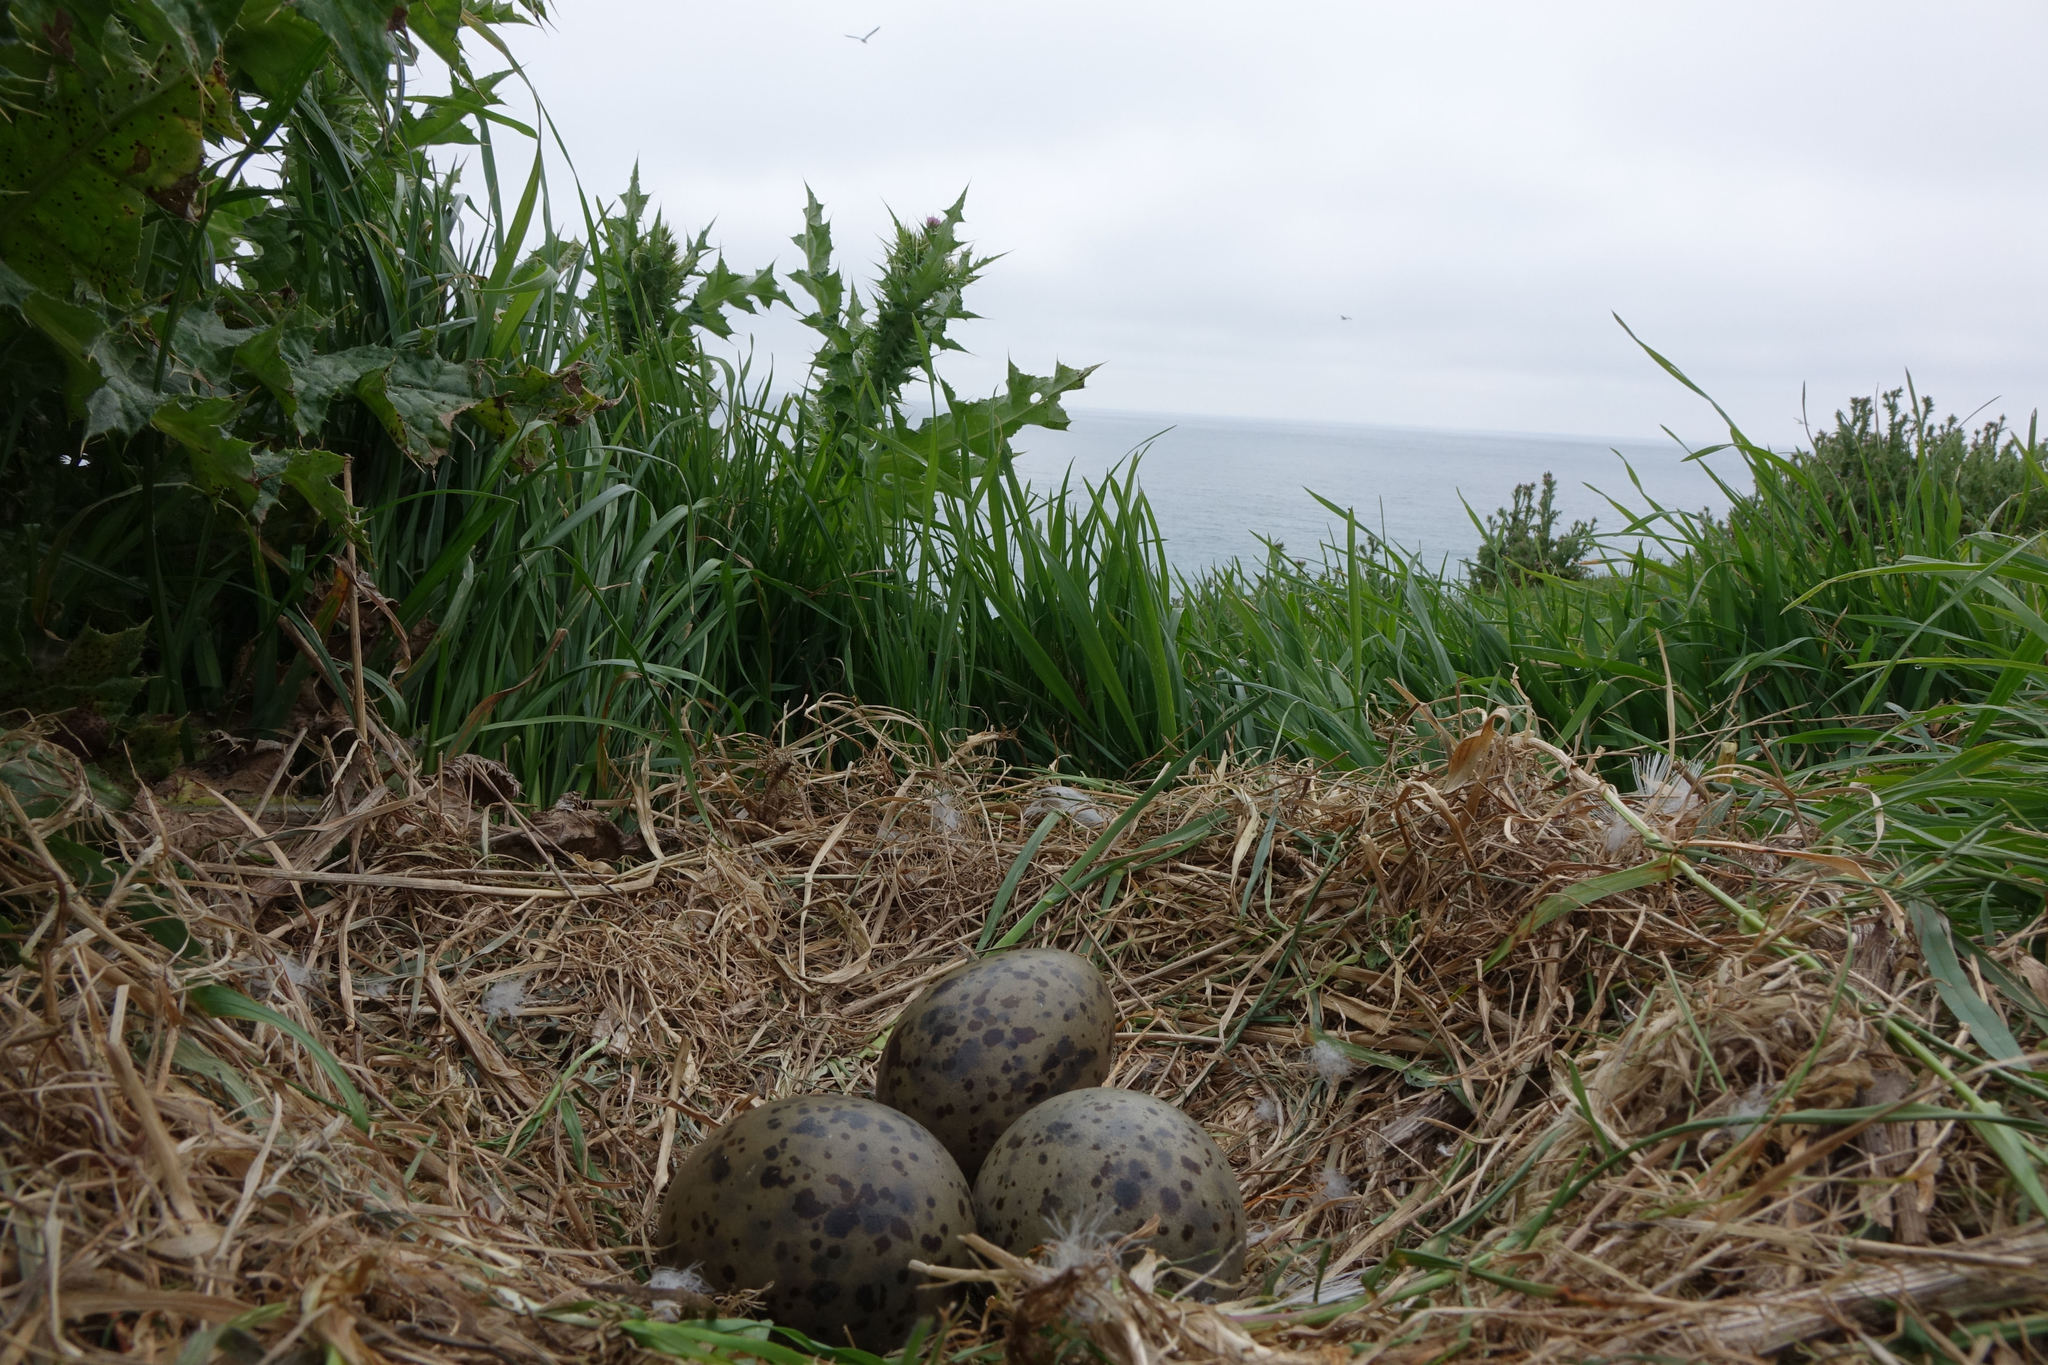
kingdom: Animalia
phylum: Chordata
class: Aves
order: Charadriiformes
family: Laridae
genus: Larus
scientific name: Larus dominicanus
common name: Kelp gull
